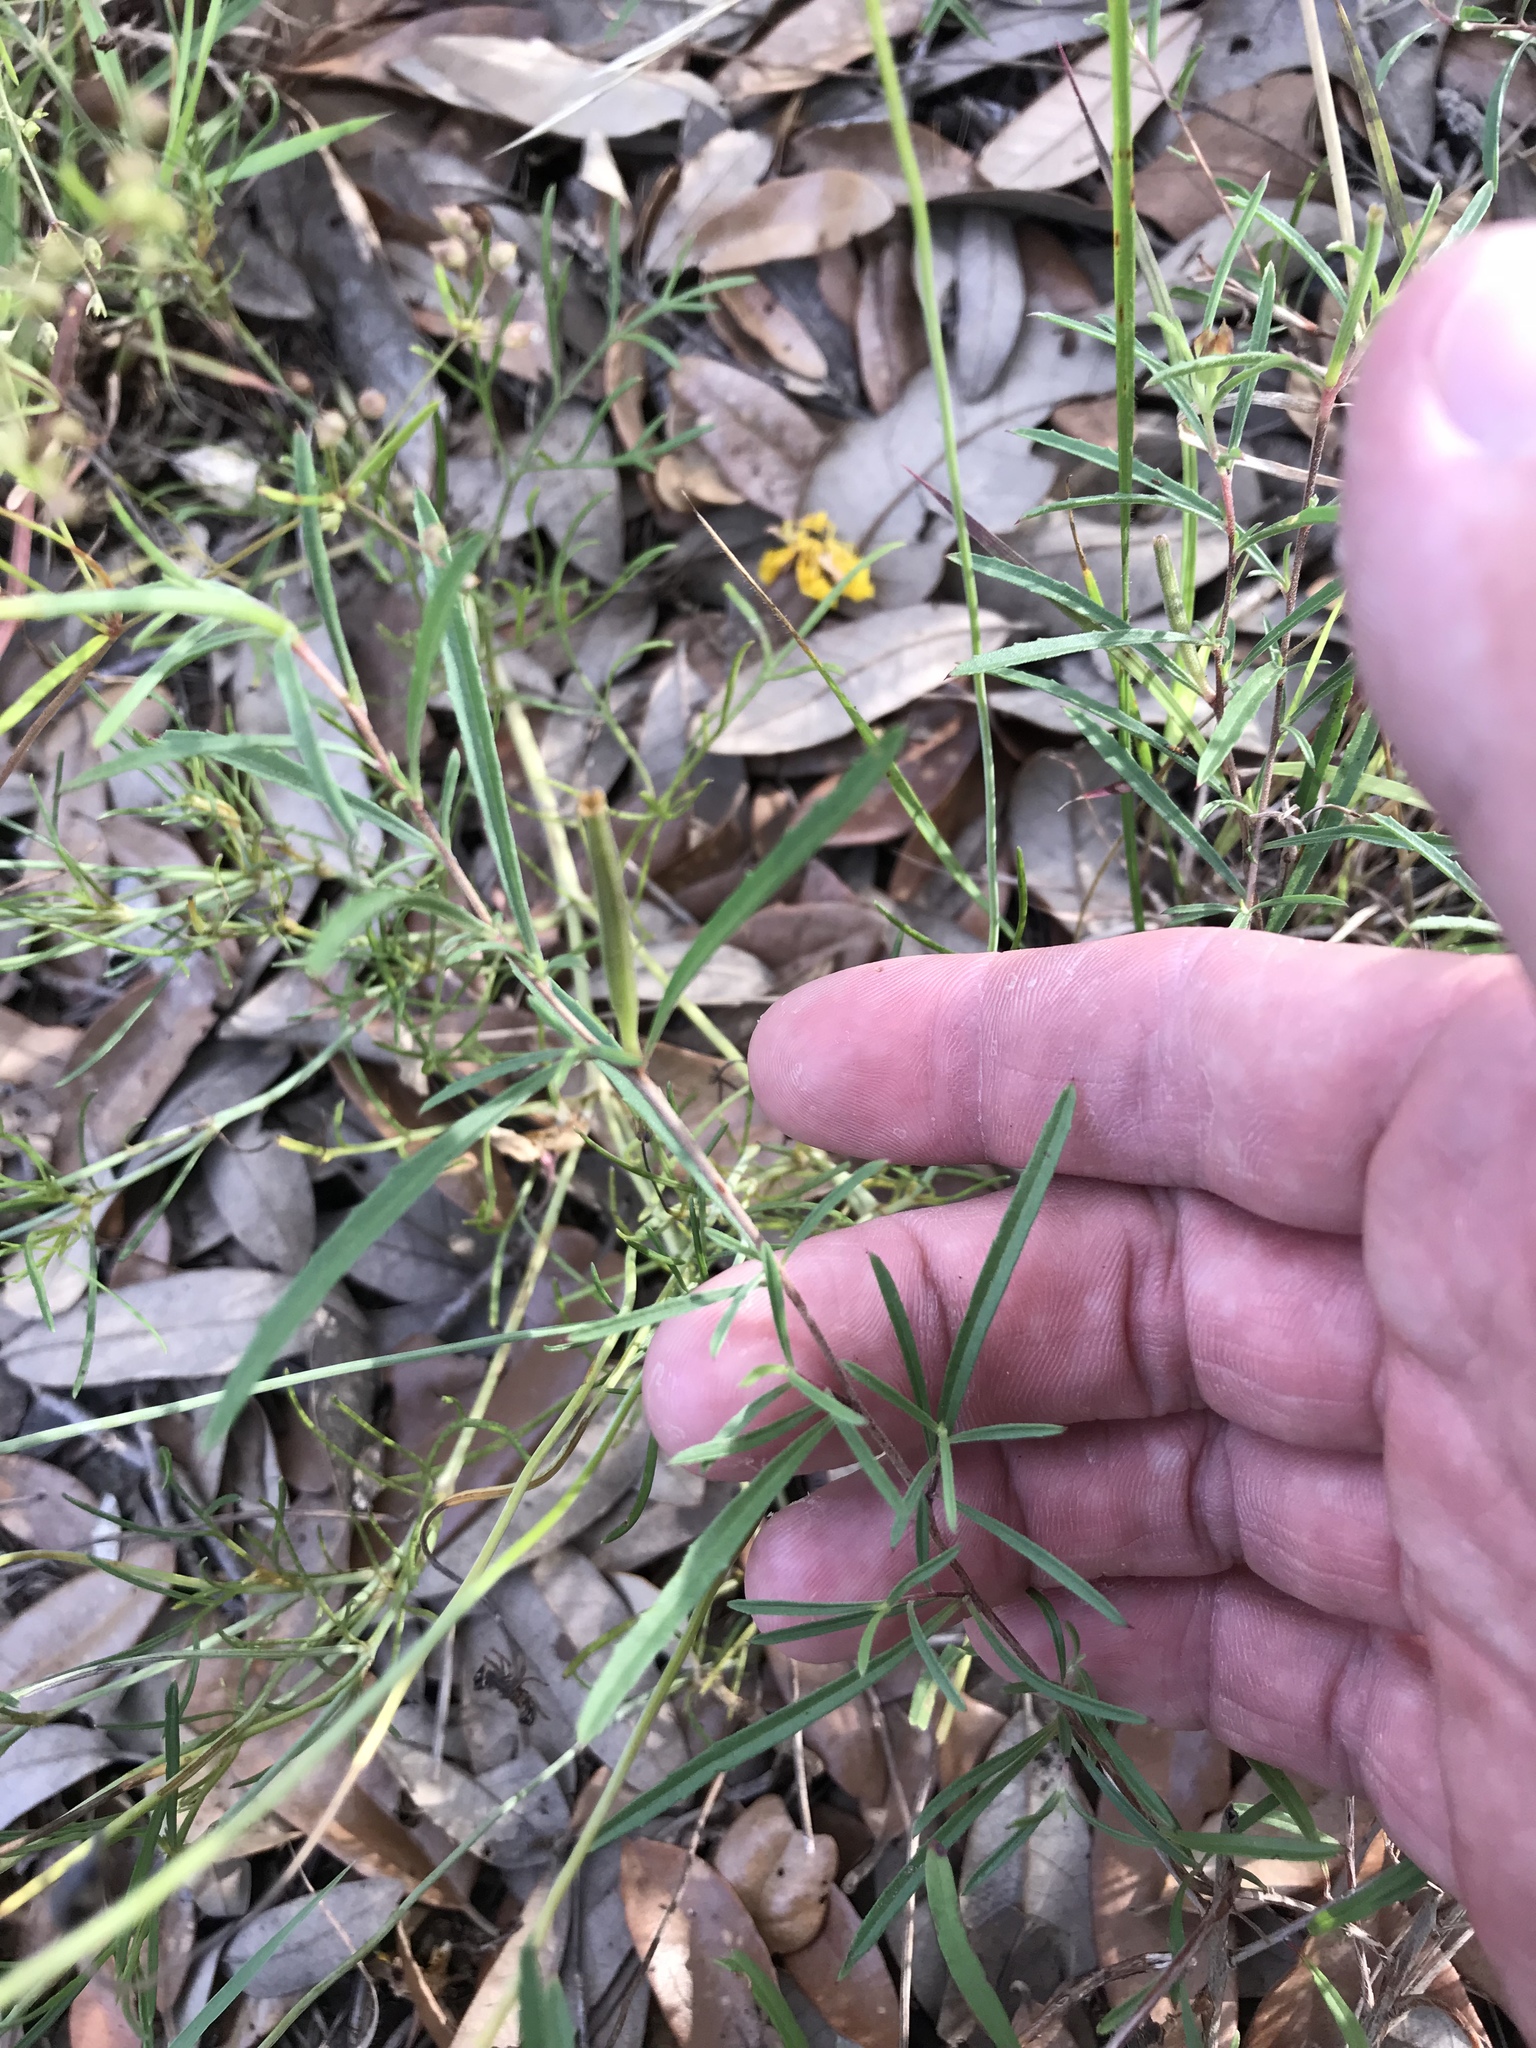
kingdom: Plantae
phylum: Tracheophyta
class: Magnoliopsida
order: Myrtales
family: Onagraceae
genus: Oenothera
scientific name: Oenothera
